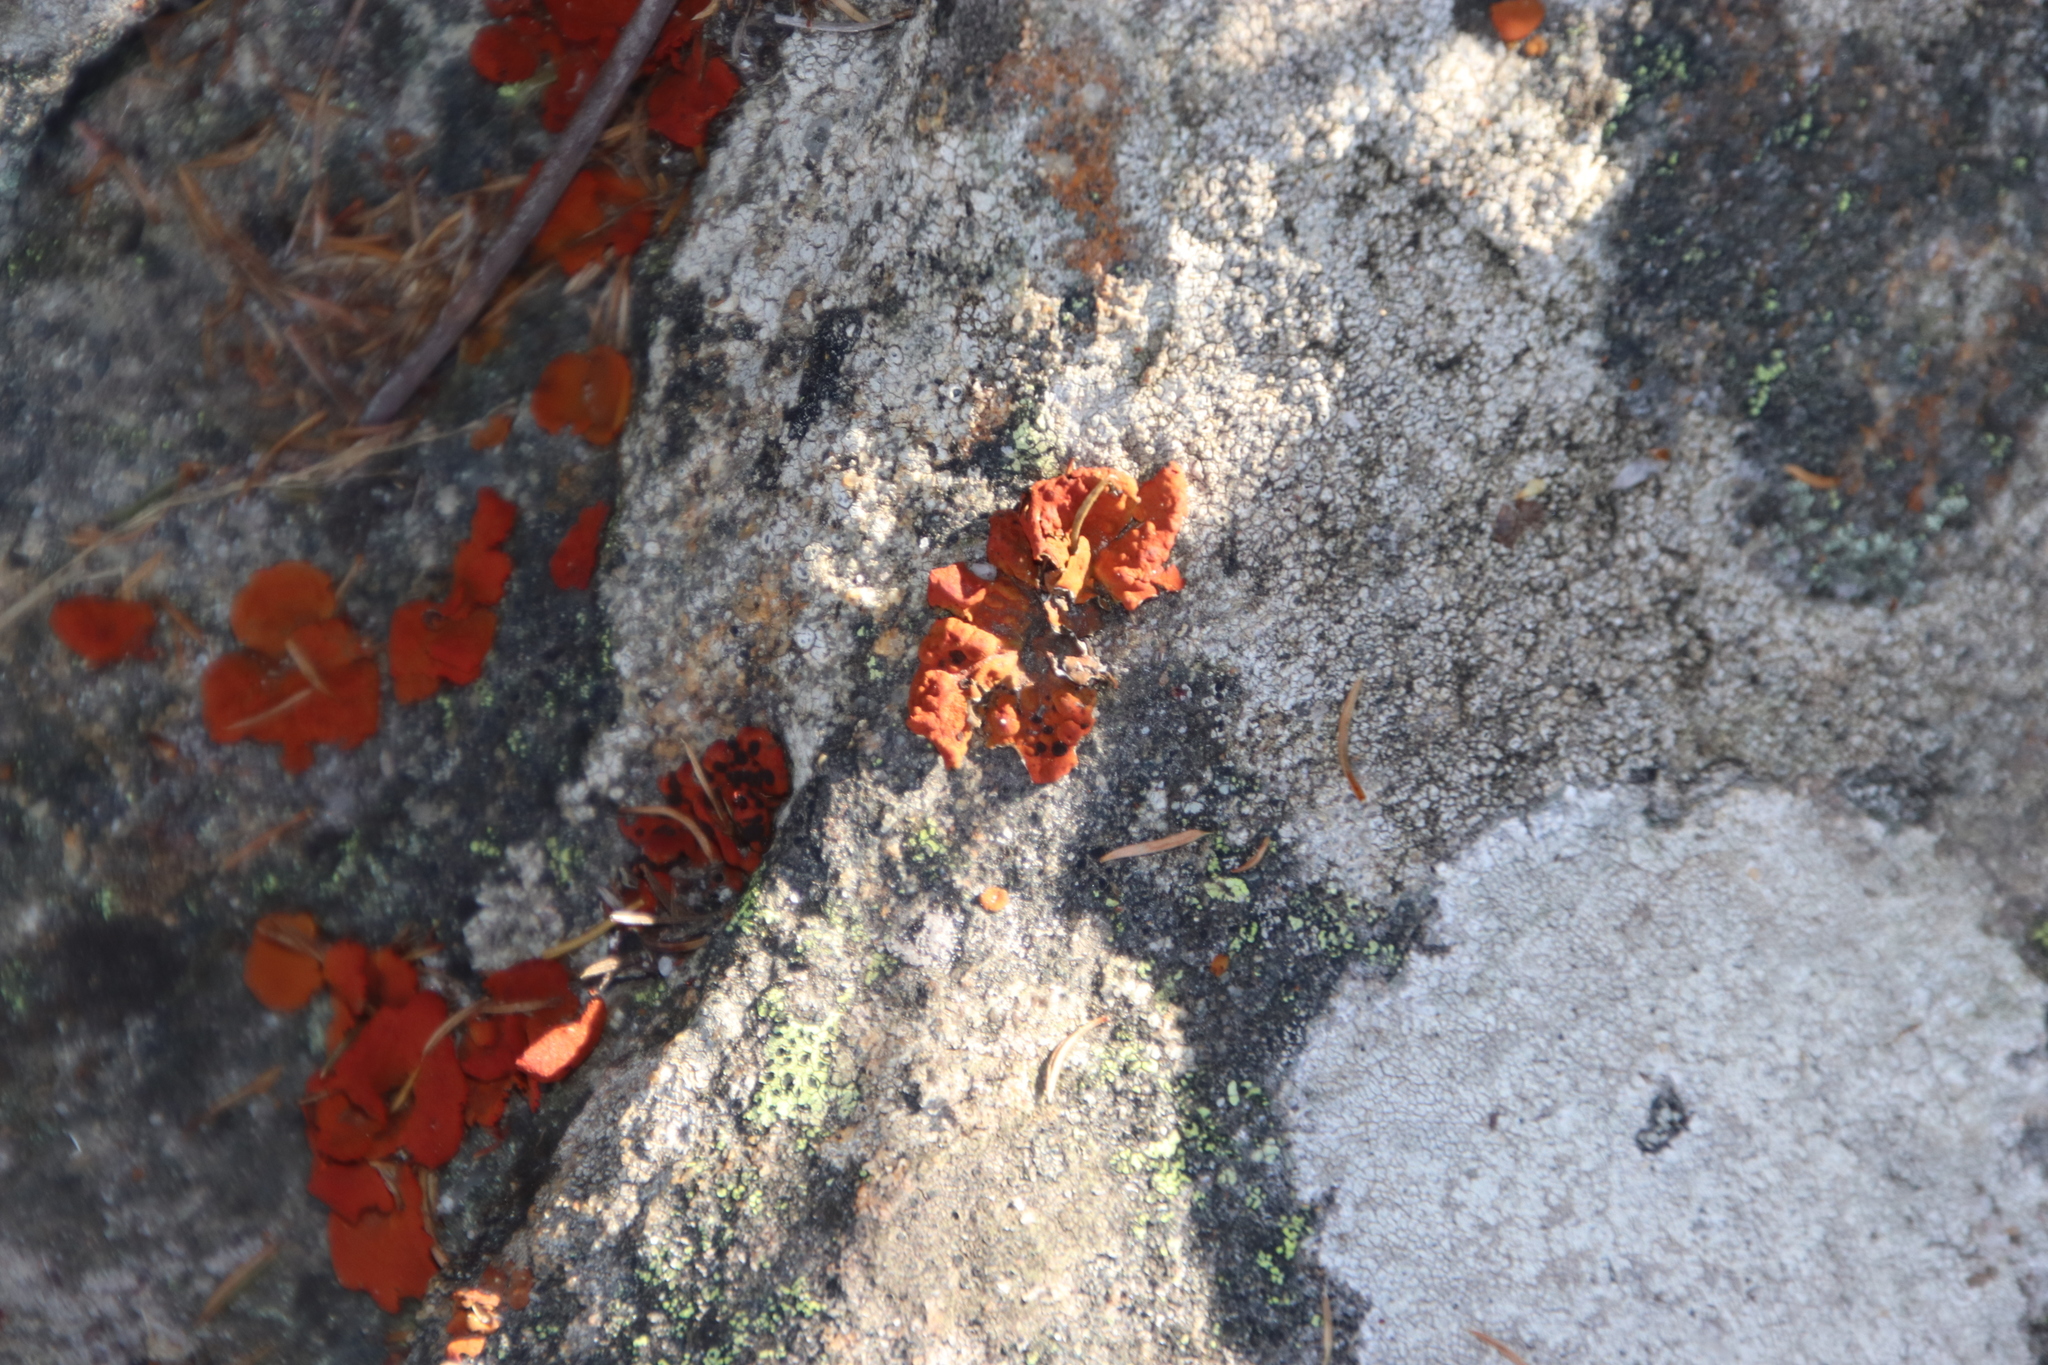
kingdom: Fungi
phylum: Ascomycota
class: Lecanoromycetes
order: Umbilicariales
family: Umbilicariaceae
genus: Lasallia
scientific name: Lasallia rubiginosa
